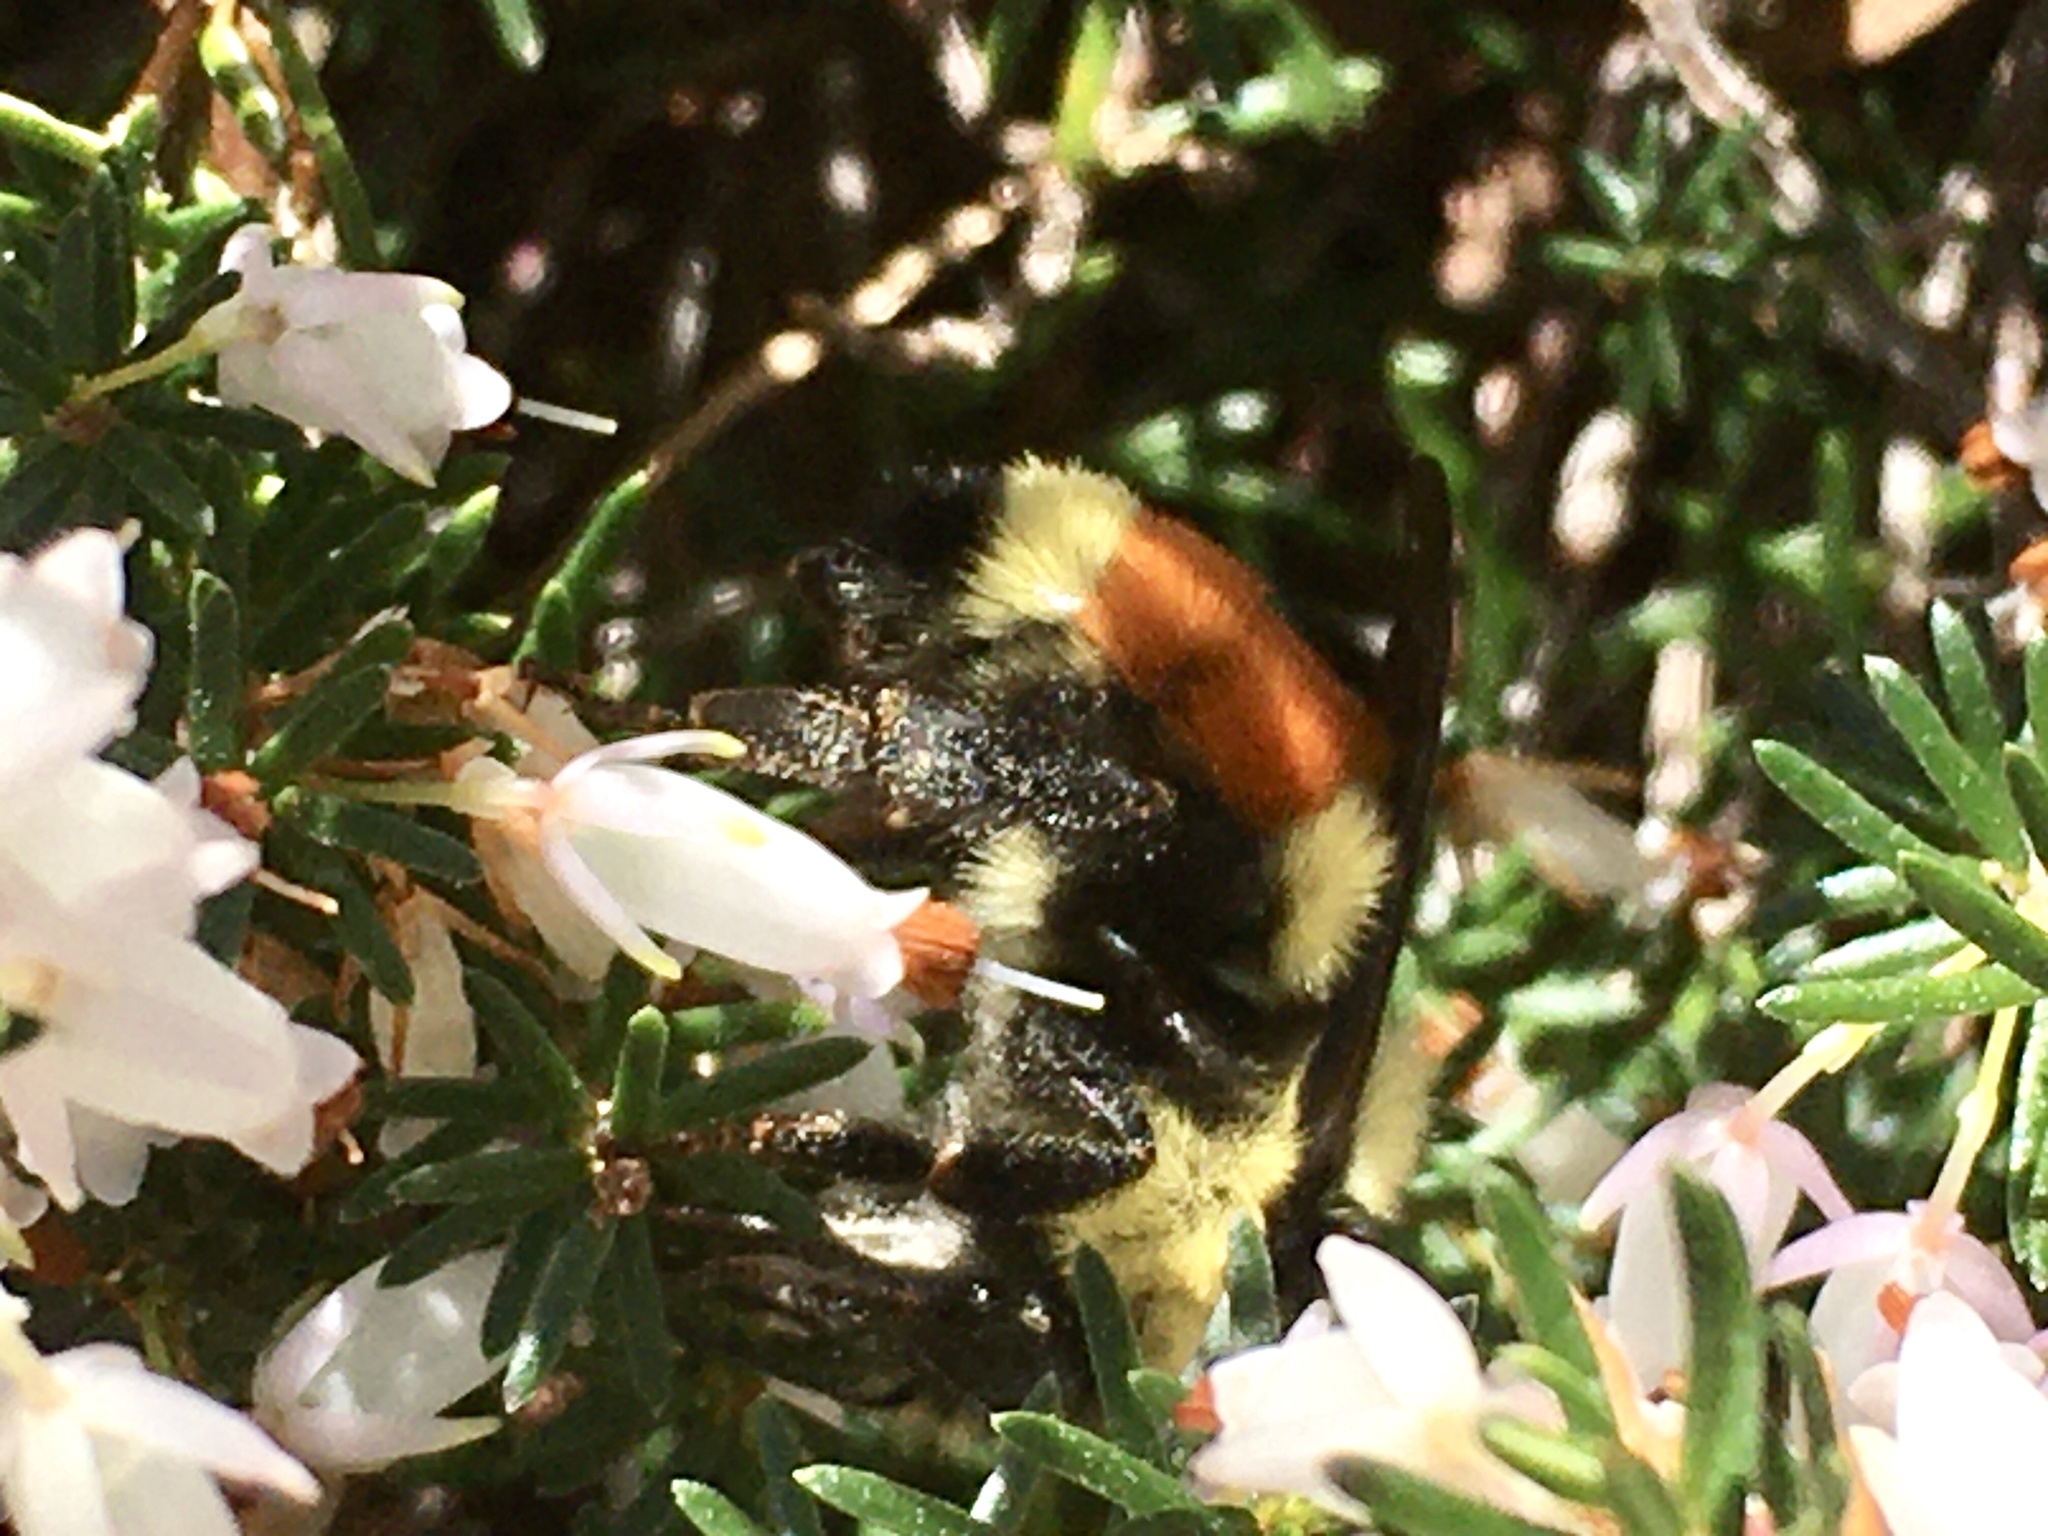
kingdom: Animalia
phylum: Arthropoda
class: Insecta
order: Hymenoptera
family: Apidae
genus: Bombus
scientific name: Bombus ternarius
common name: Tri-colored bumble bee
